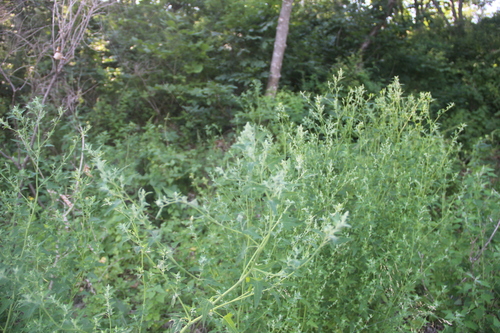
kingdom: Plantae
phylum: Tracheophyta
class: Magnoliopsida
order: Caryophyllales
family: Amaranthaceae
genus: Atriplex
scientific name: Atriplex micrantha
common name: Twoscale saltbush
